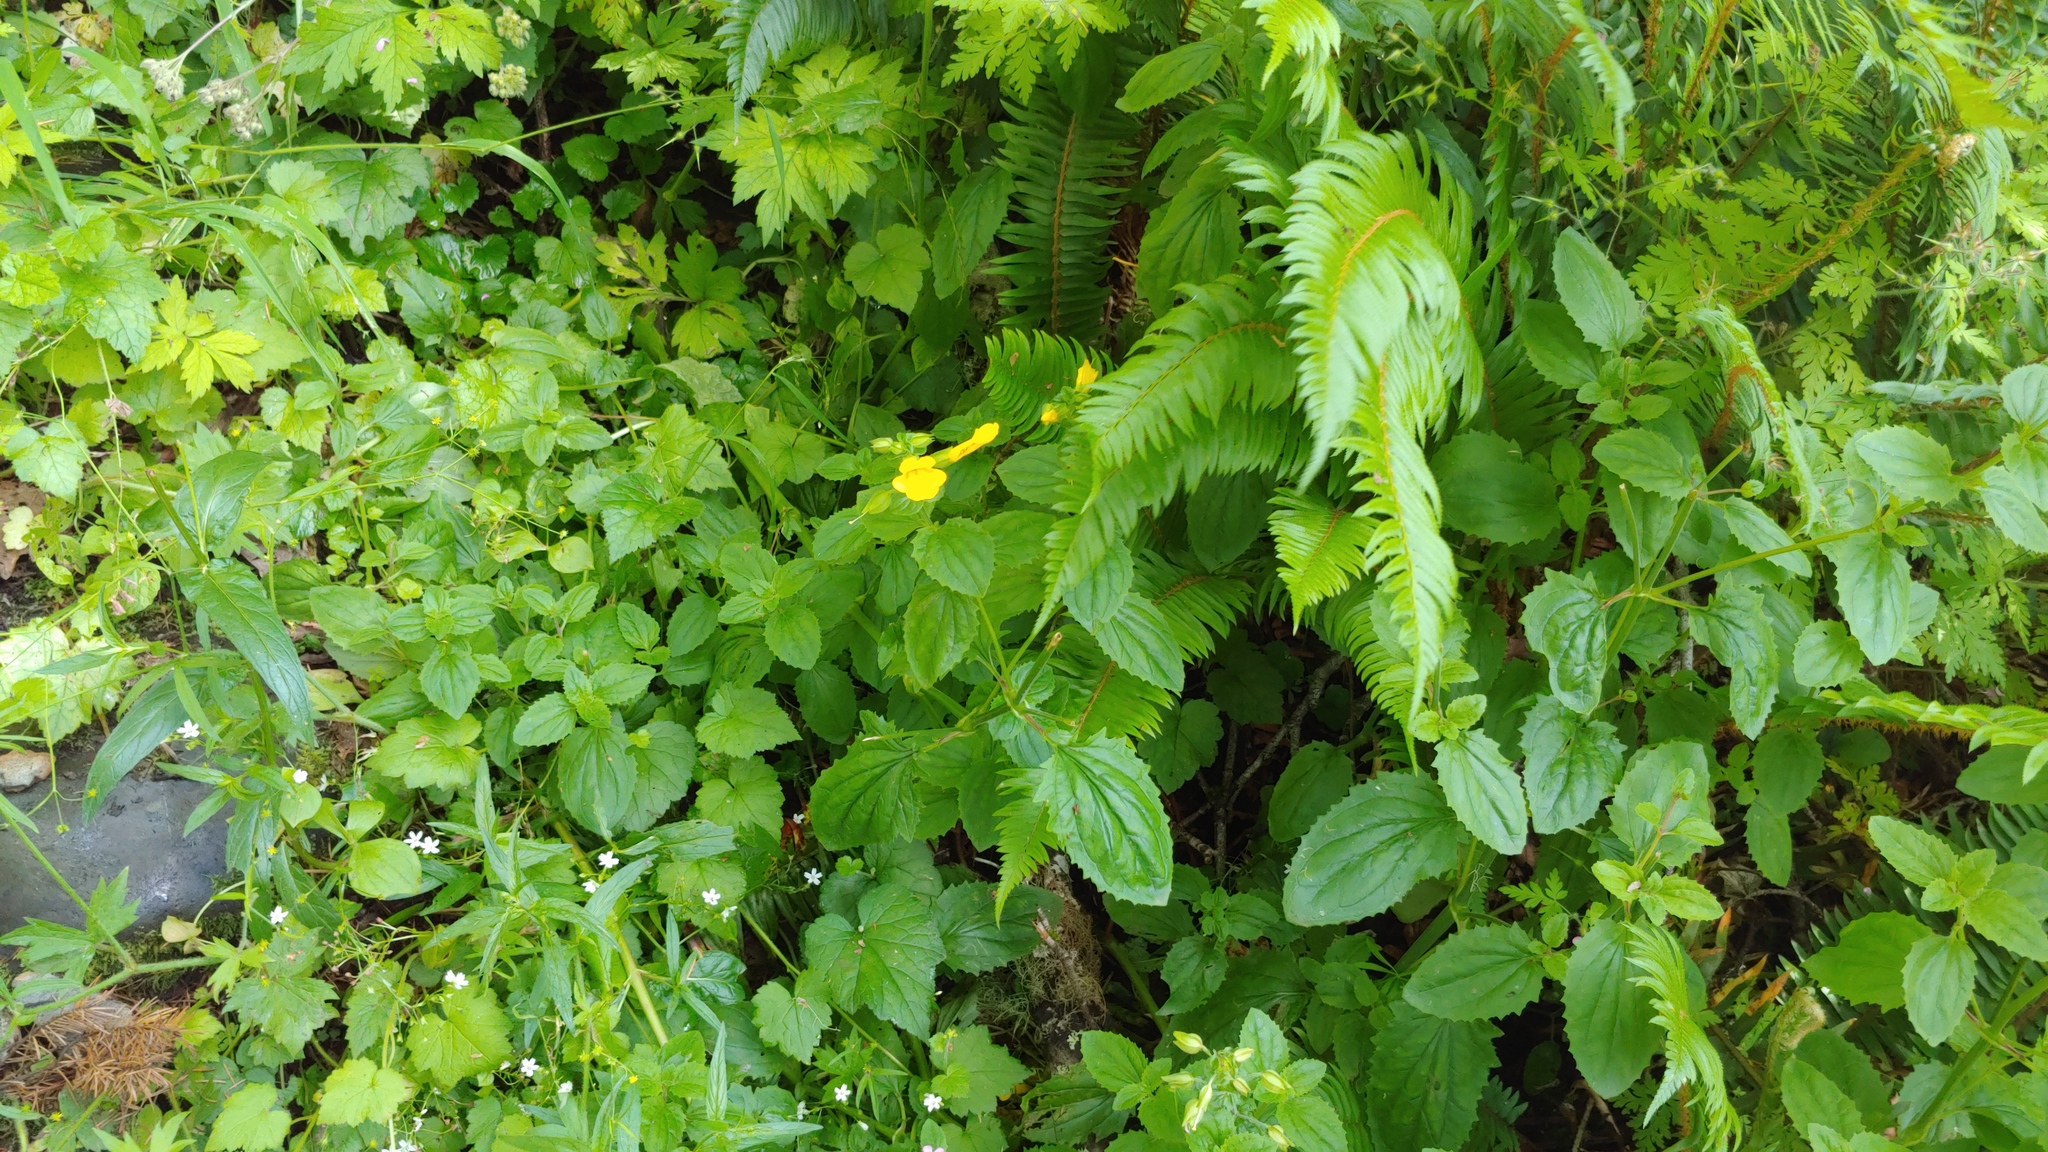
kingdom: Plantae
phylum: Tracheophyta
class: Magnoliopsida
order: Lamiales
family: Phrymaceae
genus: Erythranthe
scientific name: Erythranthe decora
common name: Mannered monkeyflower
